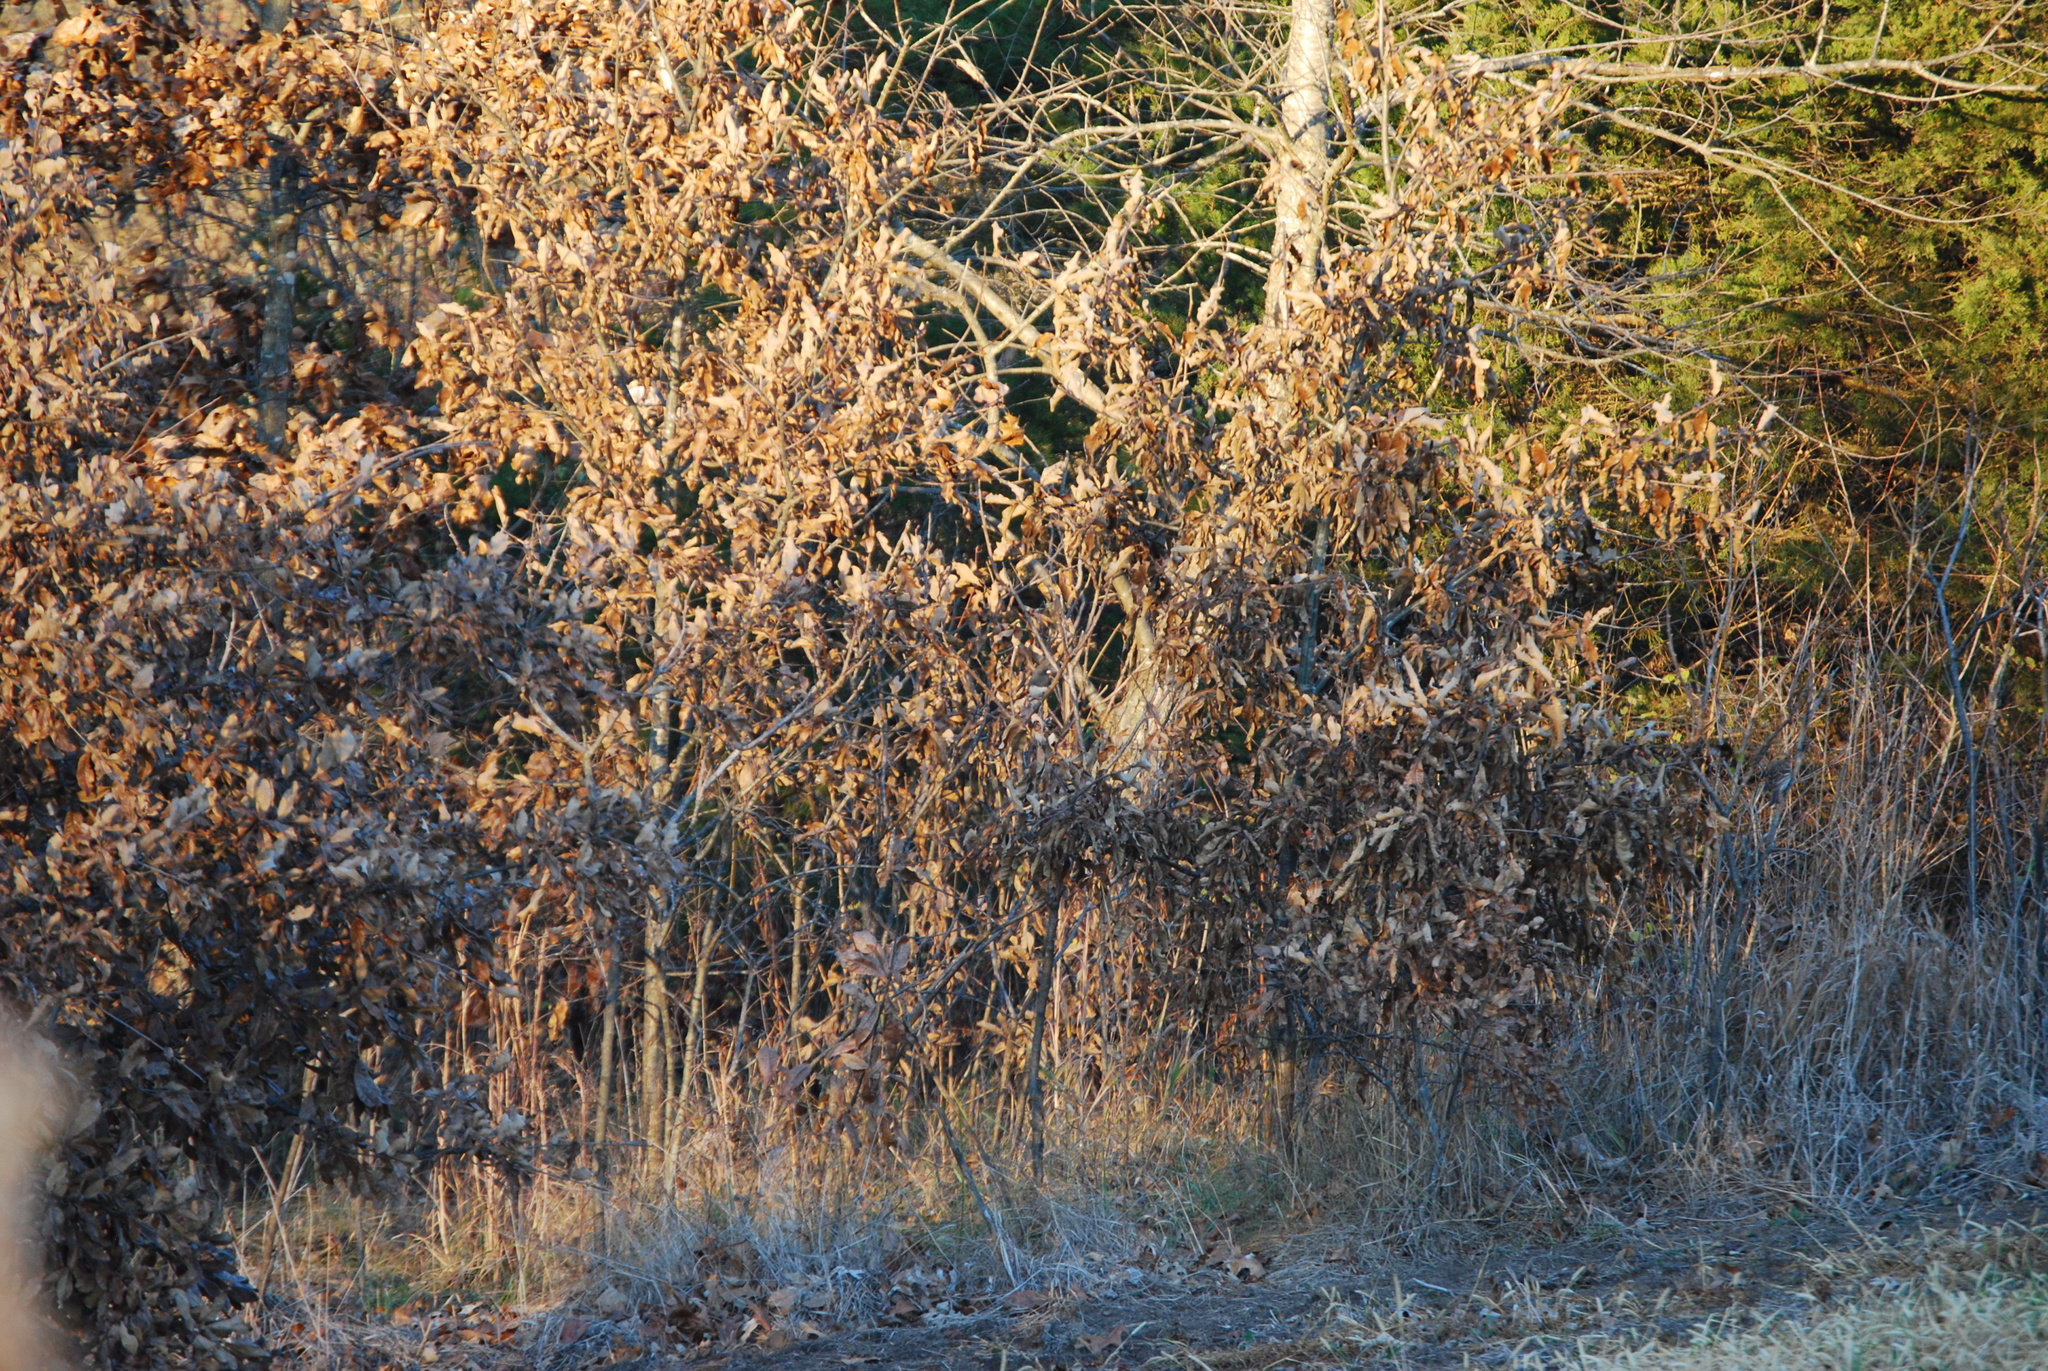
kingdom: Animalia
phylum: Chordata
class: Aves
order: Passeriformes
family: Passerellidae
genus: Junco
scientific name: Junco hyemalis
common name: Dark-eyed junco
